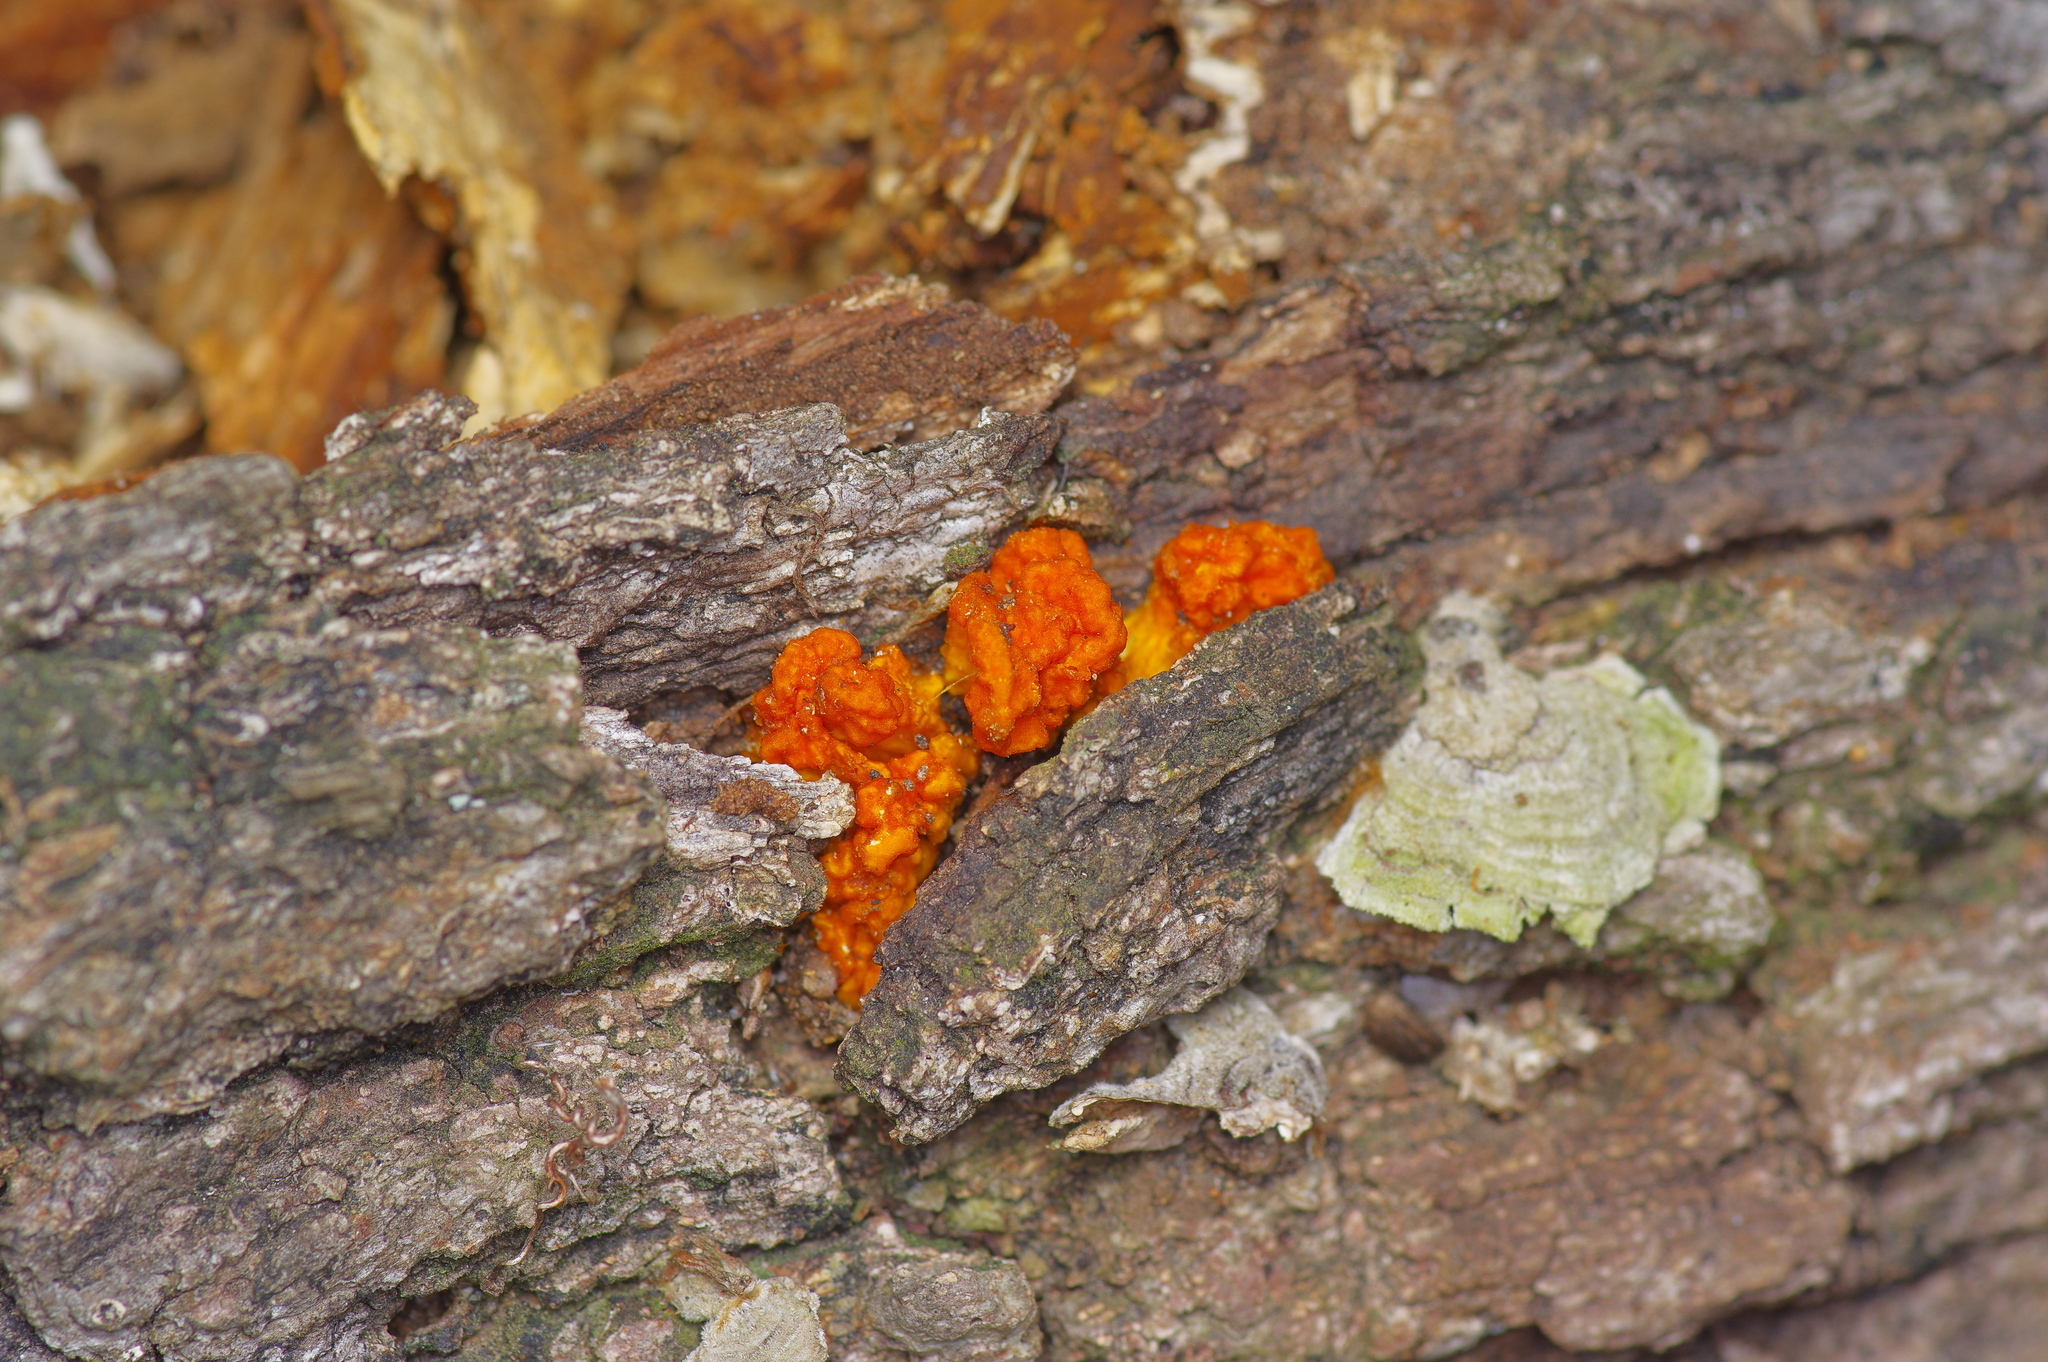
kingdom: Fungi
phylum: Basidiomycota
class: Tremellomycetes
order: Tremellales
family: Naemateliaceae
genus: Naematelia
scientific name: Naematelia aurantia
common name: Golden ear
